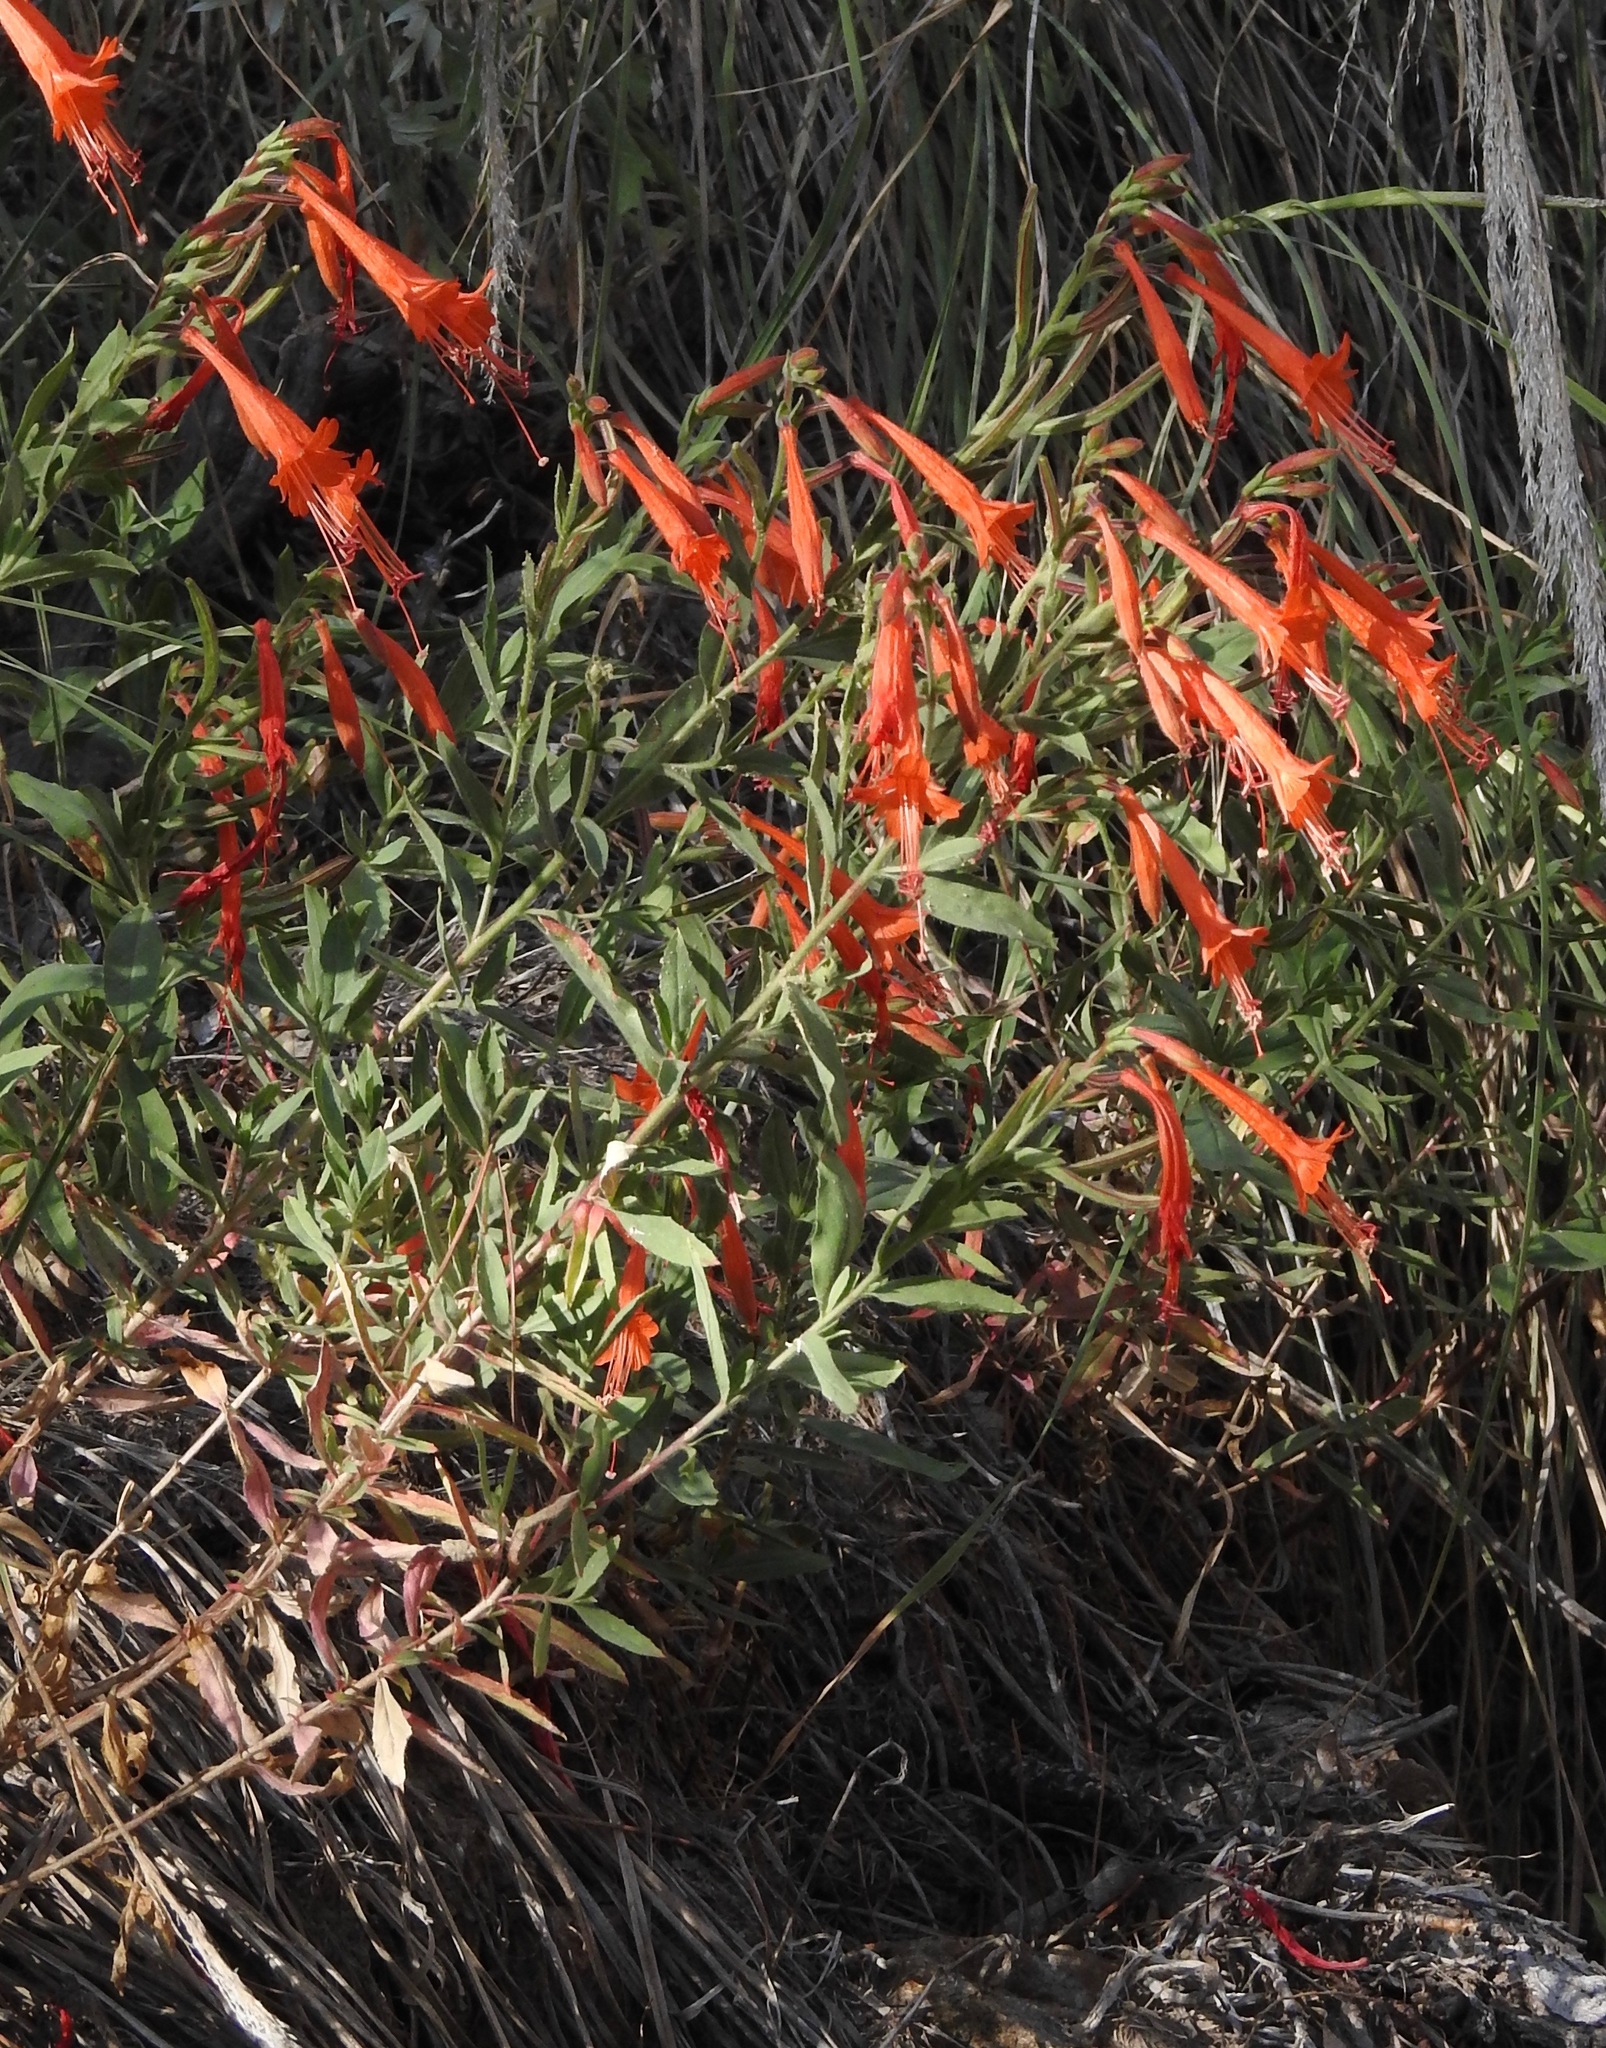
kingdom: Plantae
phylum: Tracheophyta
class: Magnoliopsida
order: Myrtales
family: Onagraceae
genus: Epilobium
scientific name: Epilobium canum
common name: California-fuchsia
